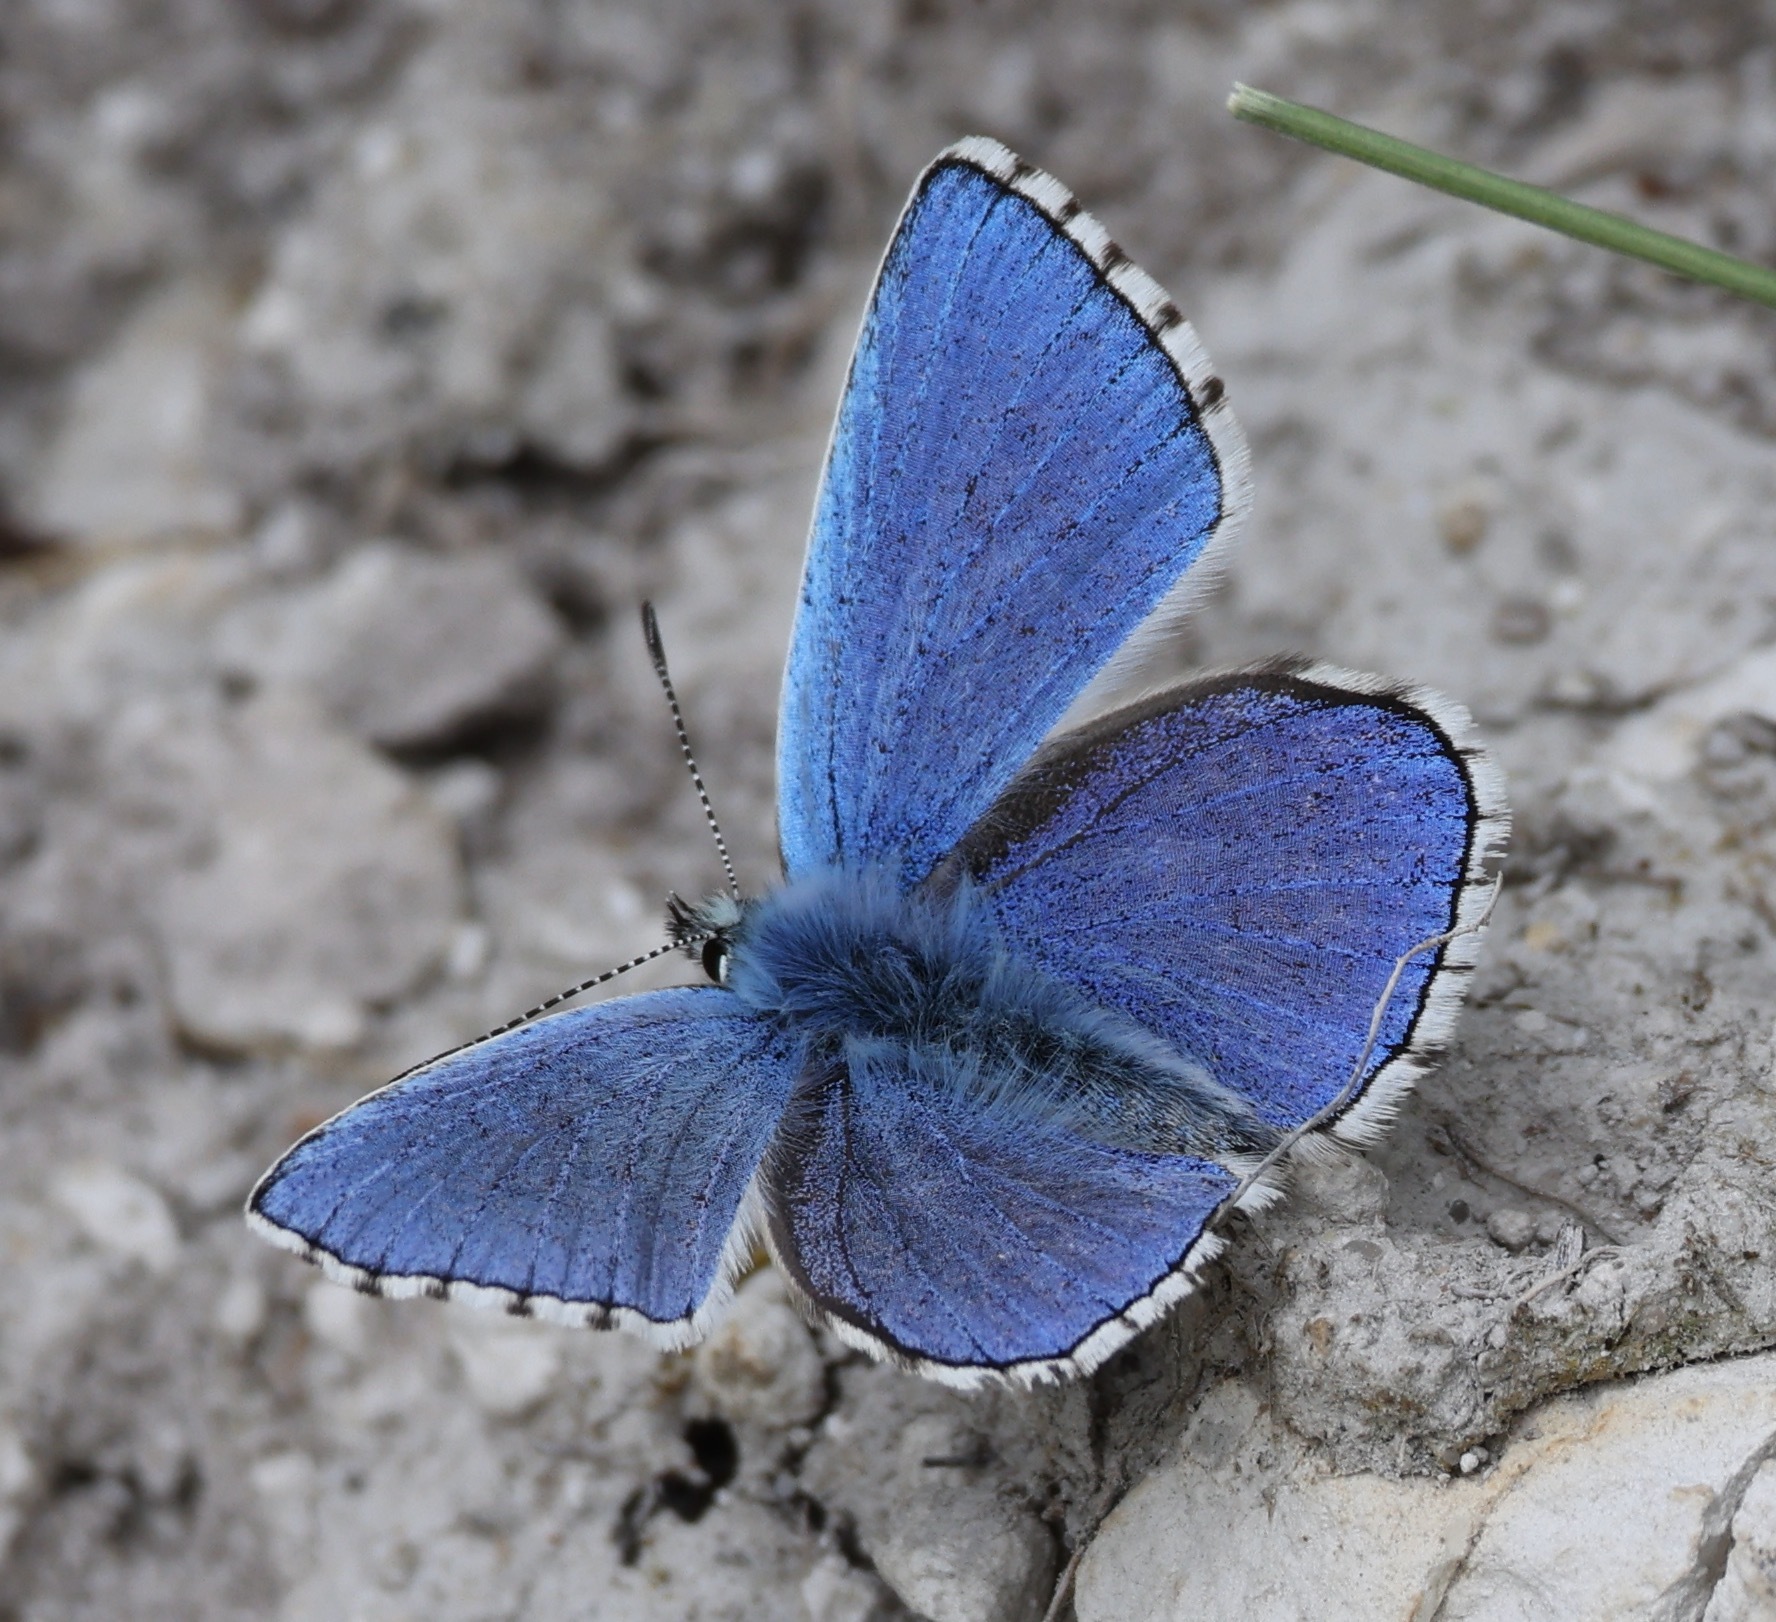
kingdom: Animalia
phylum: Arthropoda
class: Insecta
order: Lepidoptera
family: Lycaenidae
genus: Lysandra
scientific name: Lysandra bellargus
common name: Adonis blue
